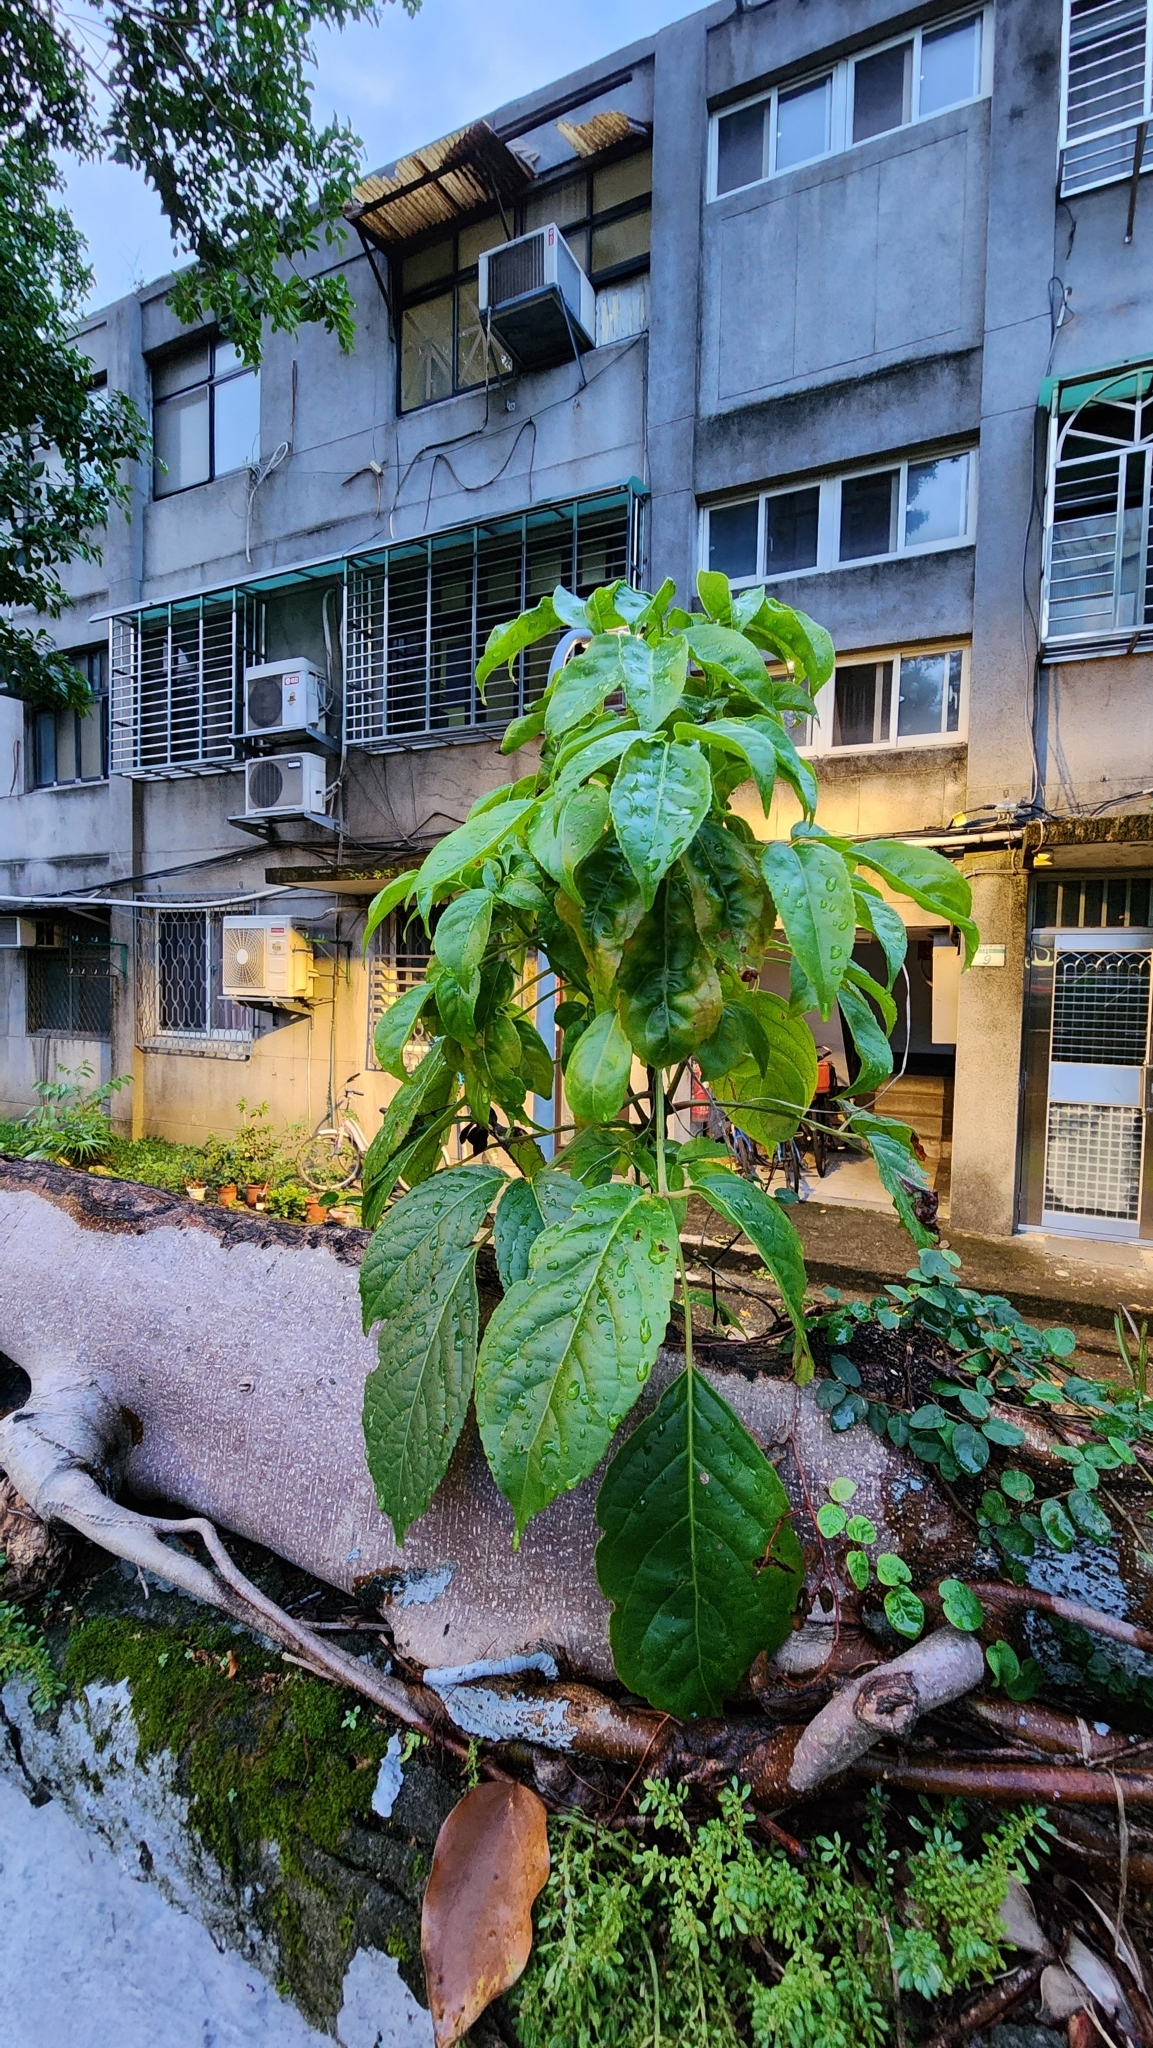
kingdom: Plantae
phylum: Tracheophyta
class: Magnoliopsida
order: Malpighiales
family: Phyllanthaceae
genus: Bischofia
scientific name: Bischofia javanica
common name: Javanese bishopwood
